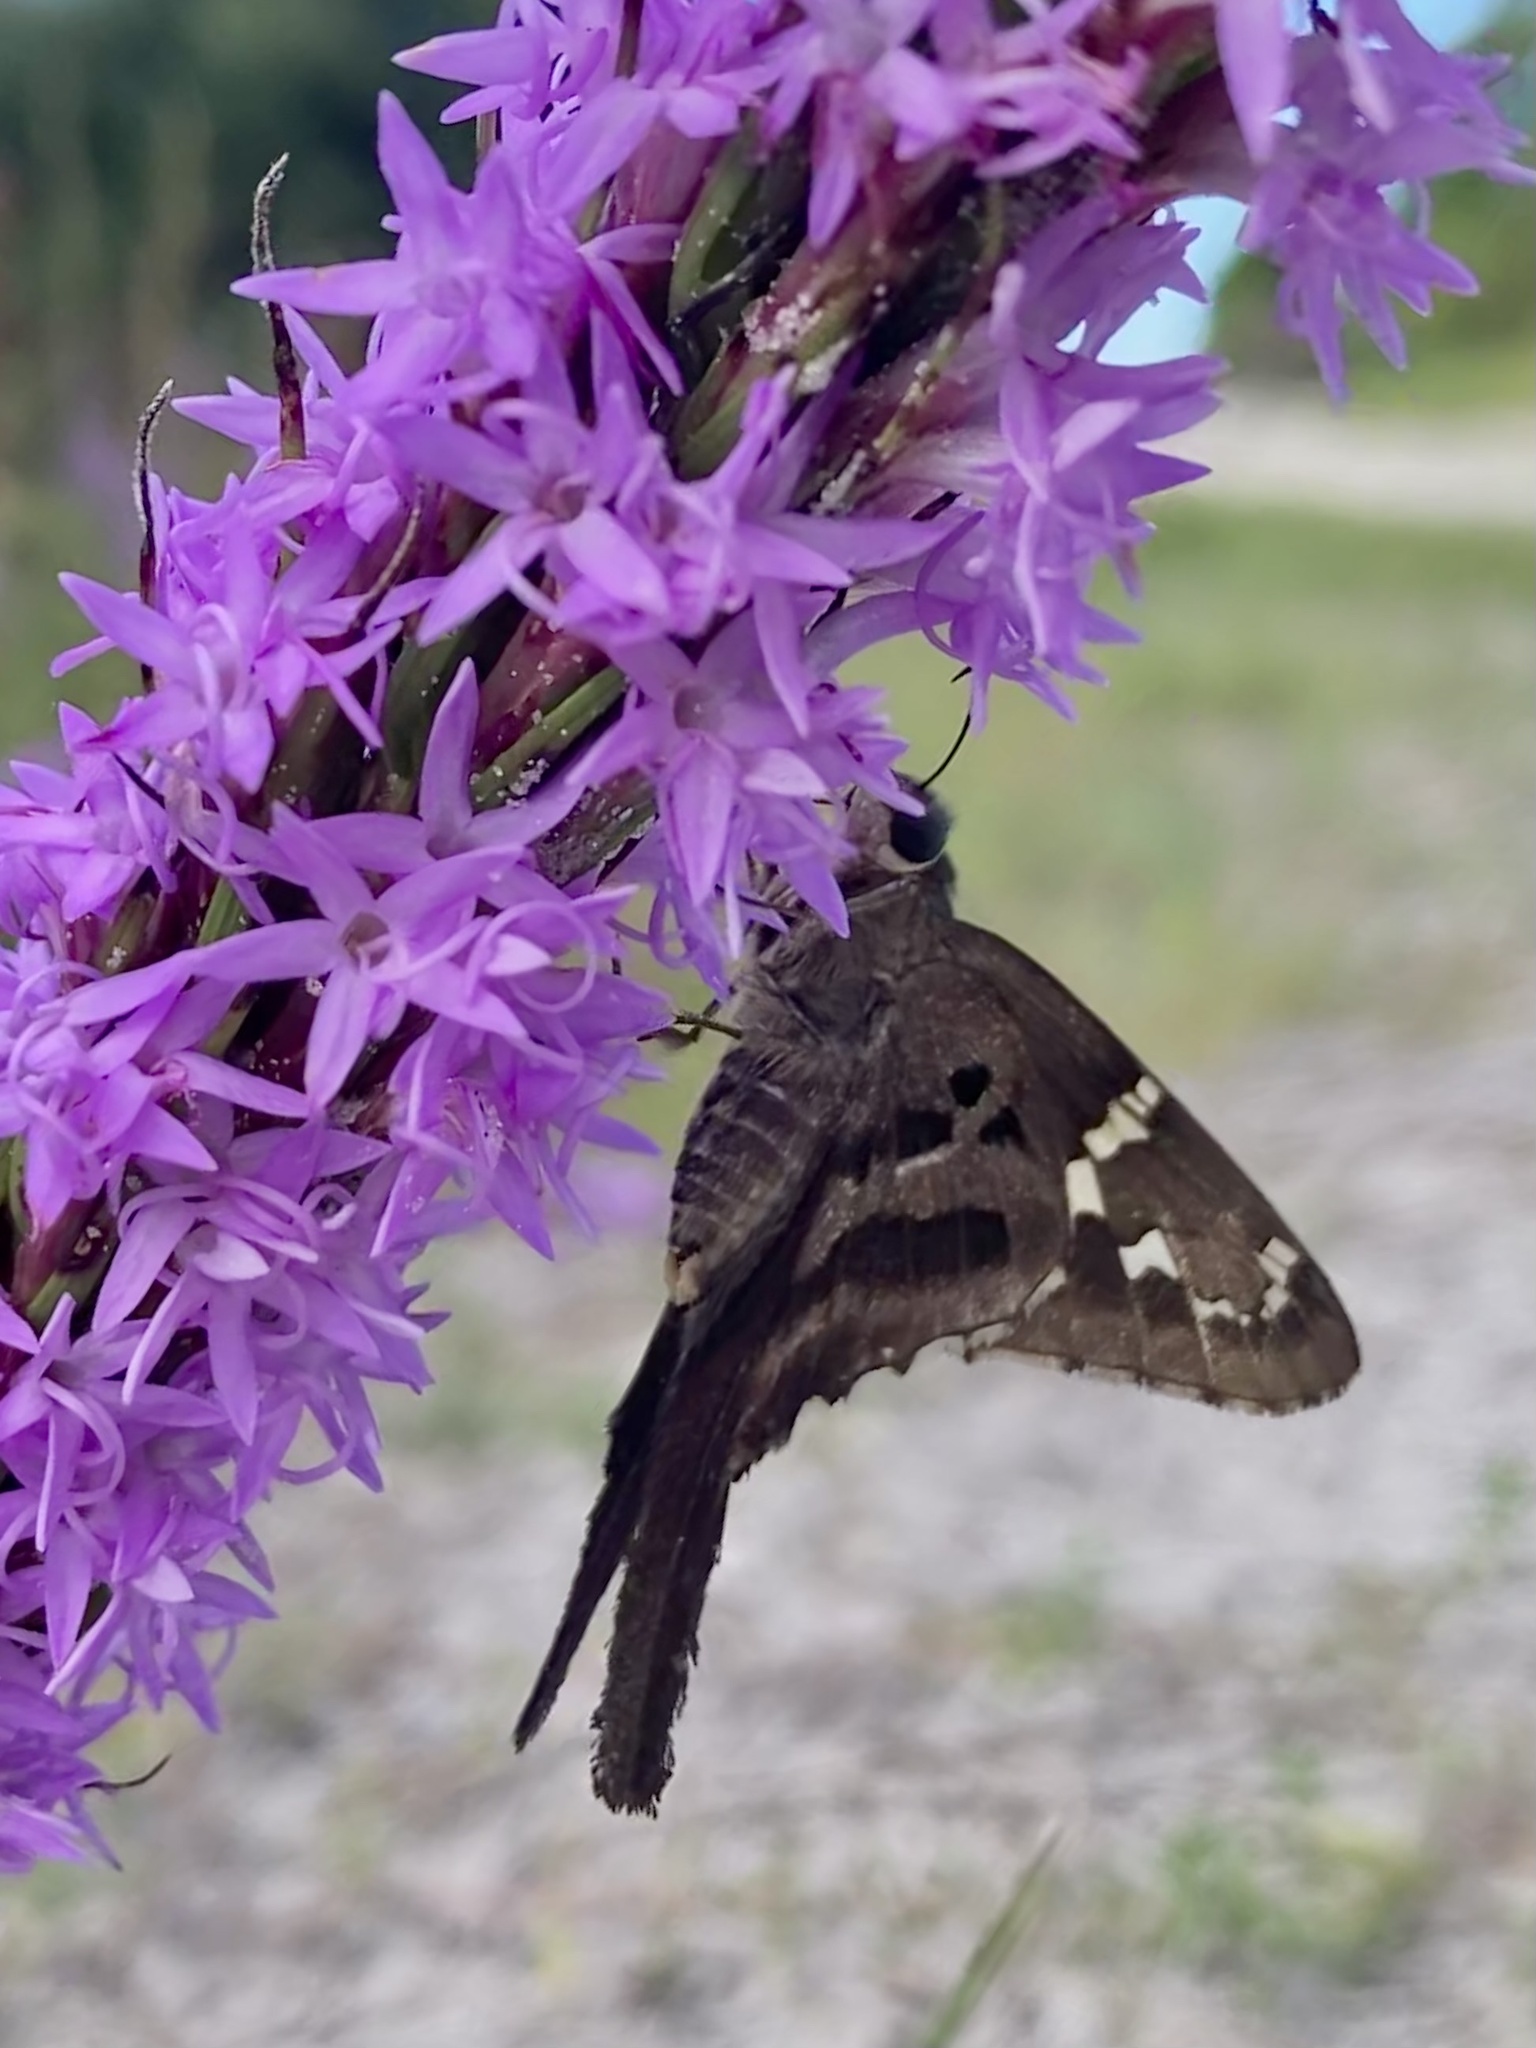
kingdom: Animalia
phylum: Arthropoda
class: Insecta
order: Lepidoptera
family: Hesperiidae
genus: Urbanus
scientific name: Urbanus proteus
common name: Long-tailed skipper
